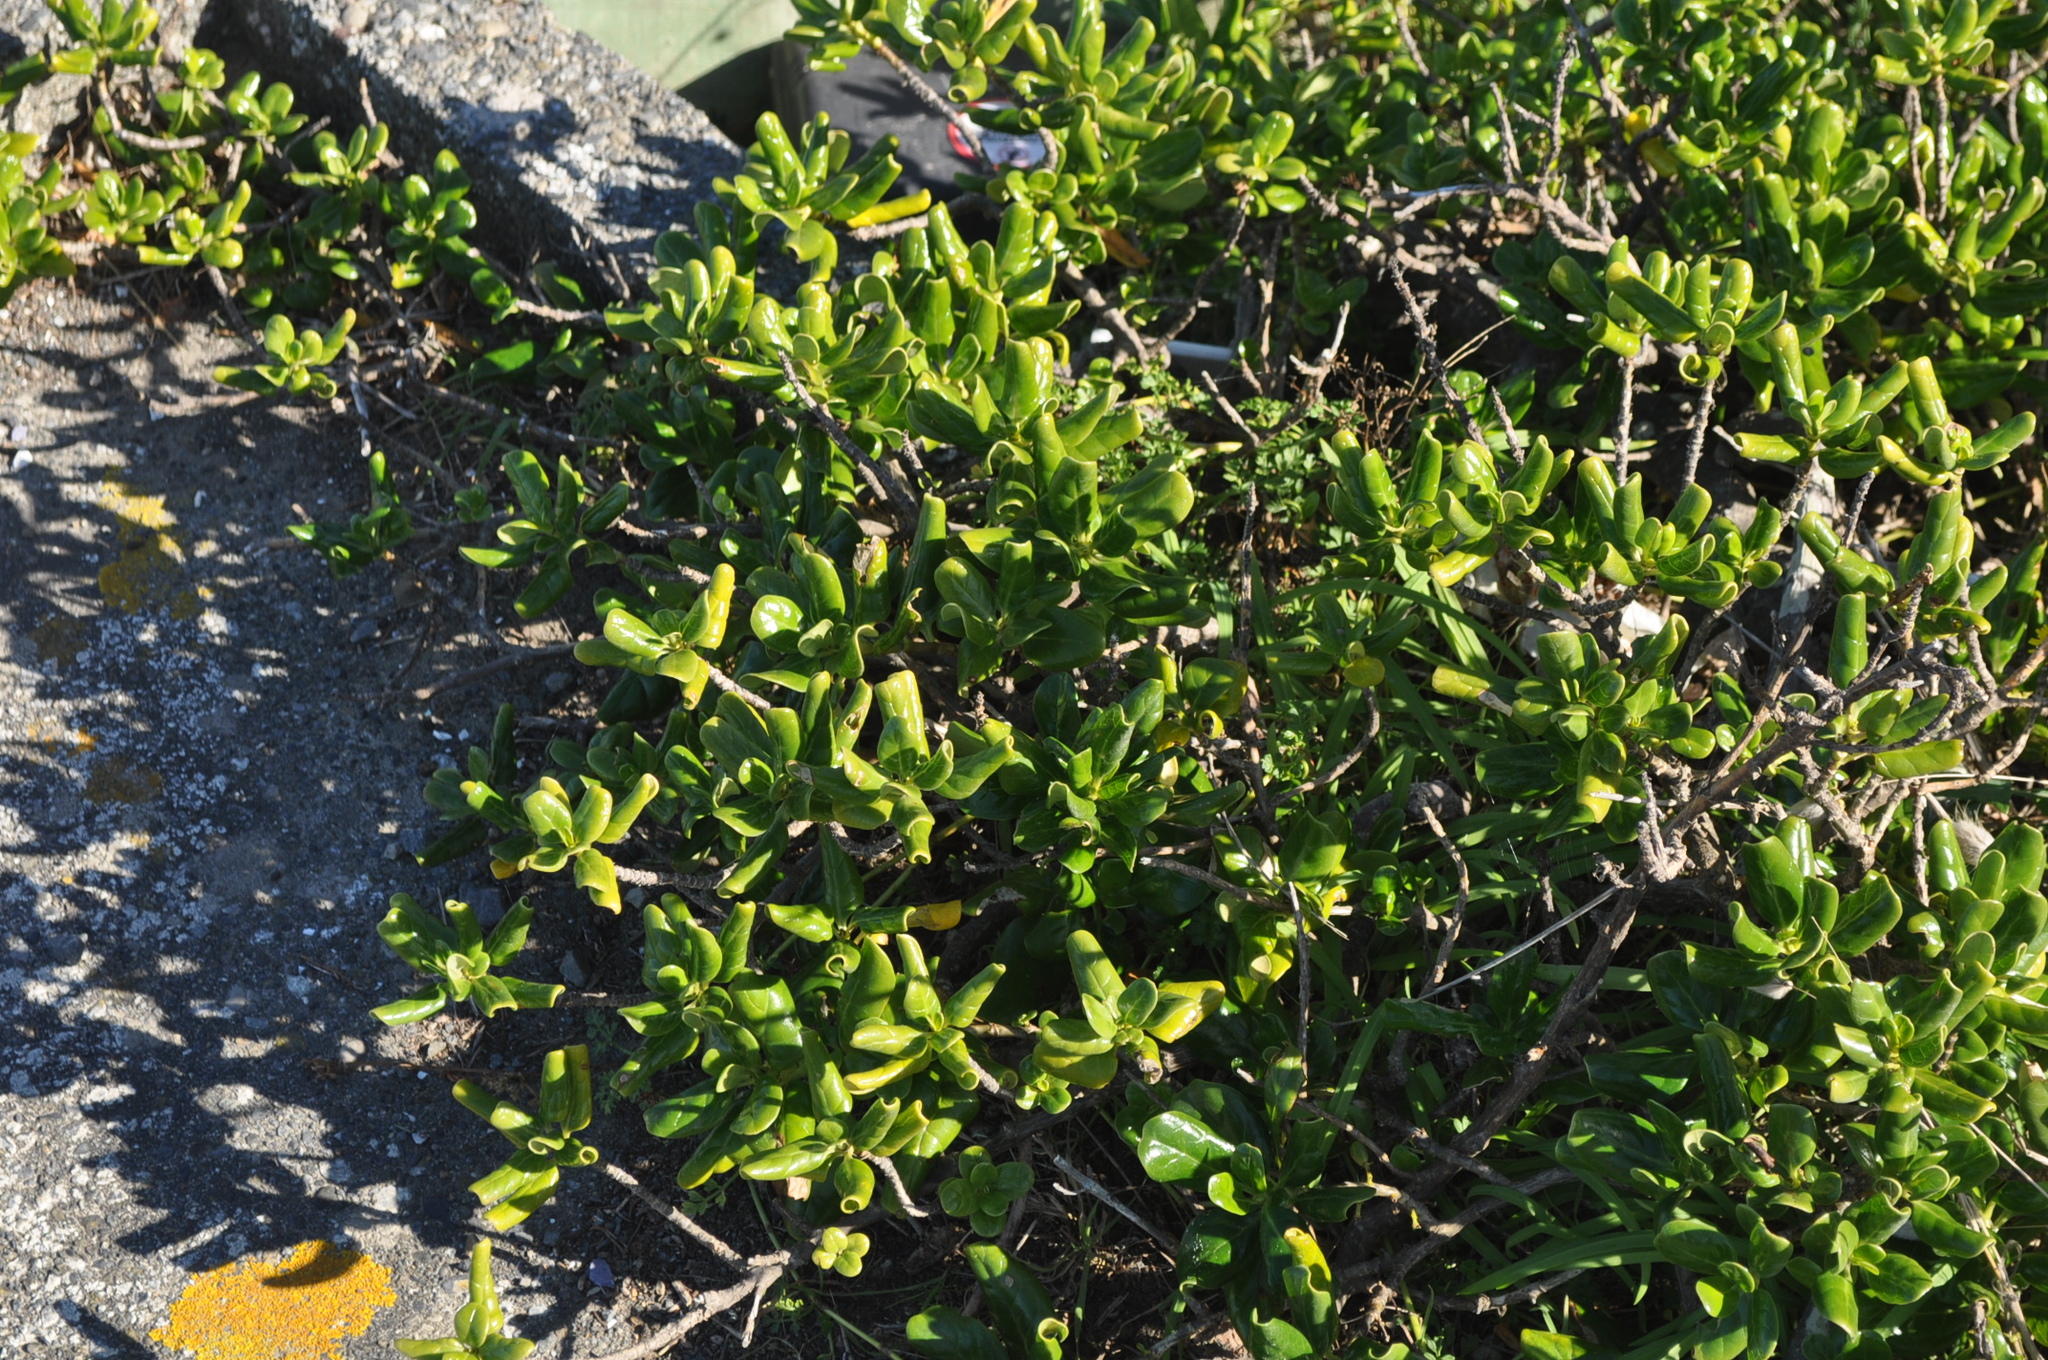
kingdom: Plantae
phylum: Tracheophyta
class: Magnoliopsida
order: Gentianales
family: Rubiaceae
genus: Coprosma
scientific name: Coprosma repens
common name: Tree bedstraw
